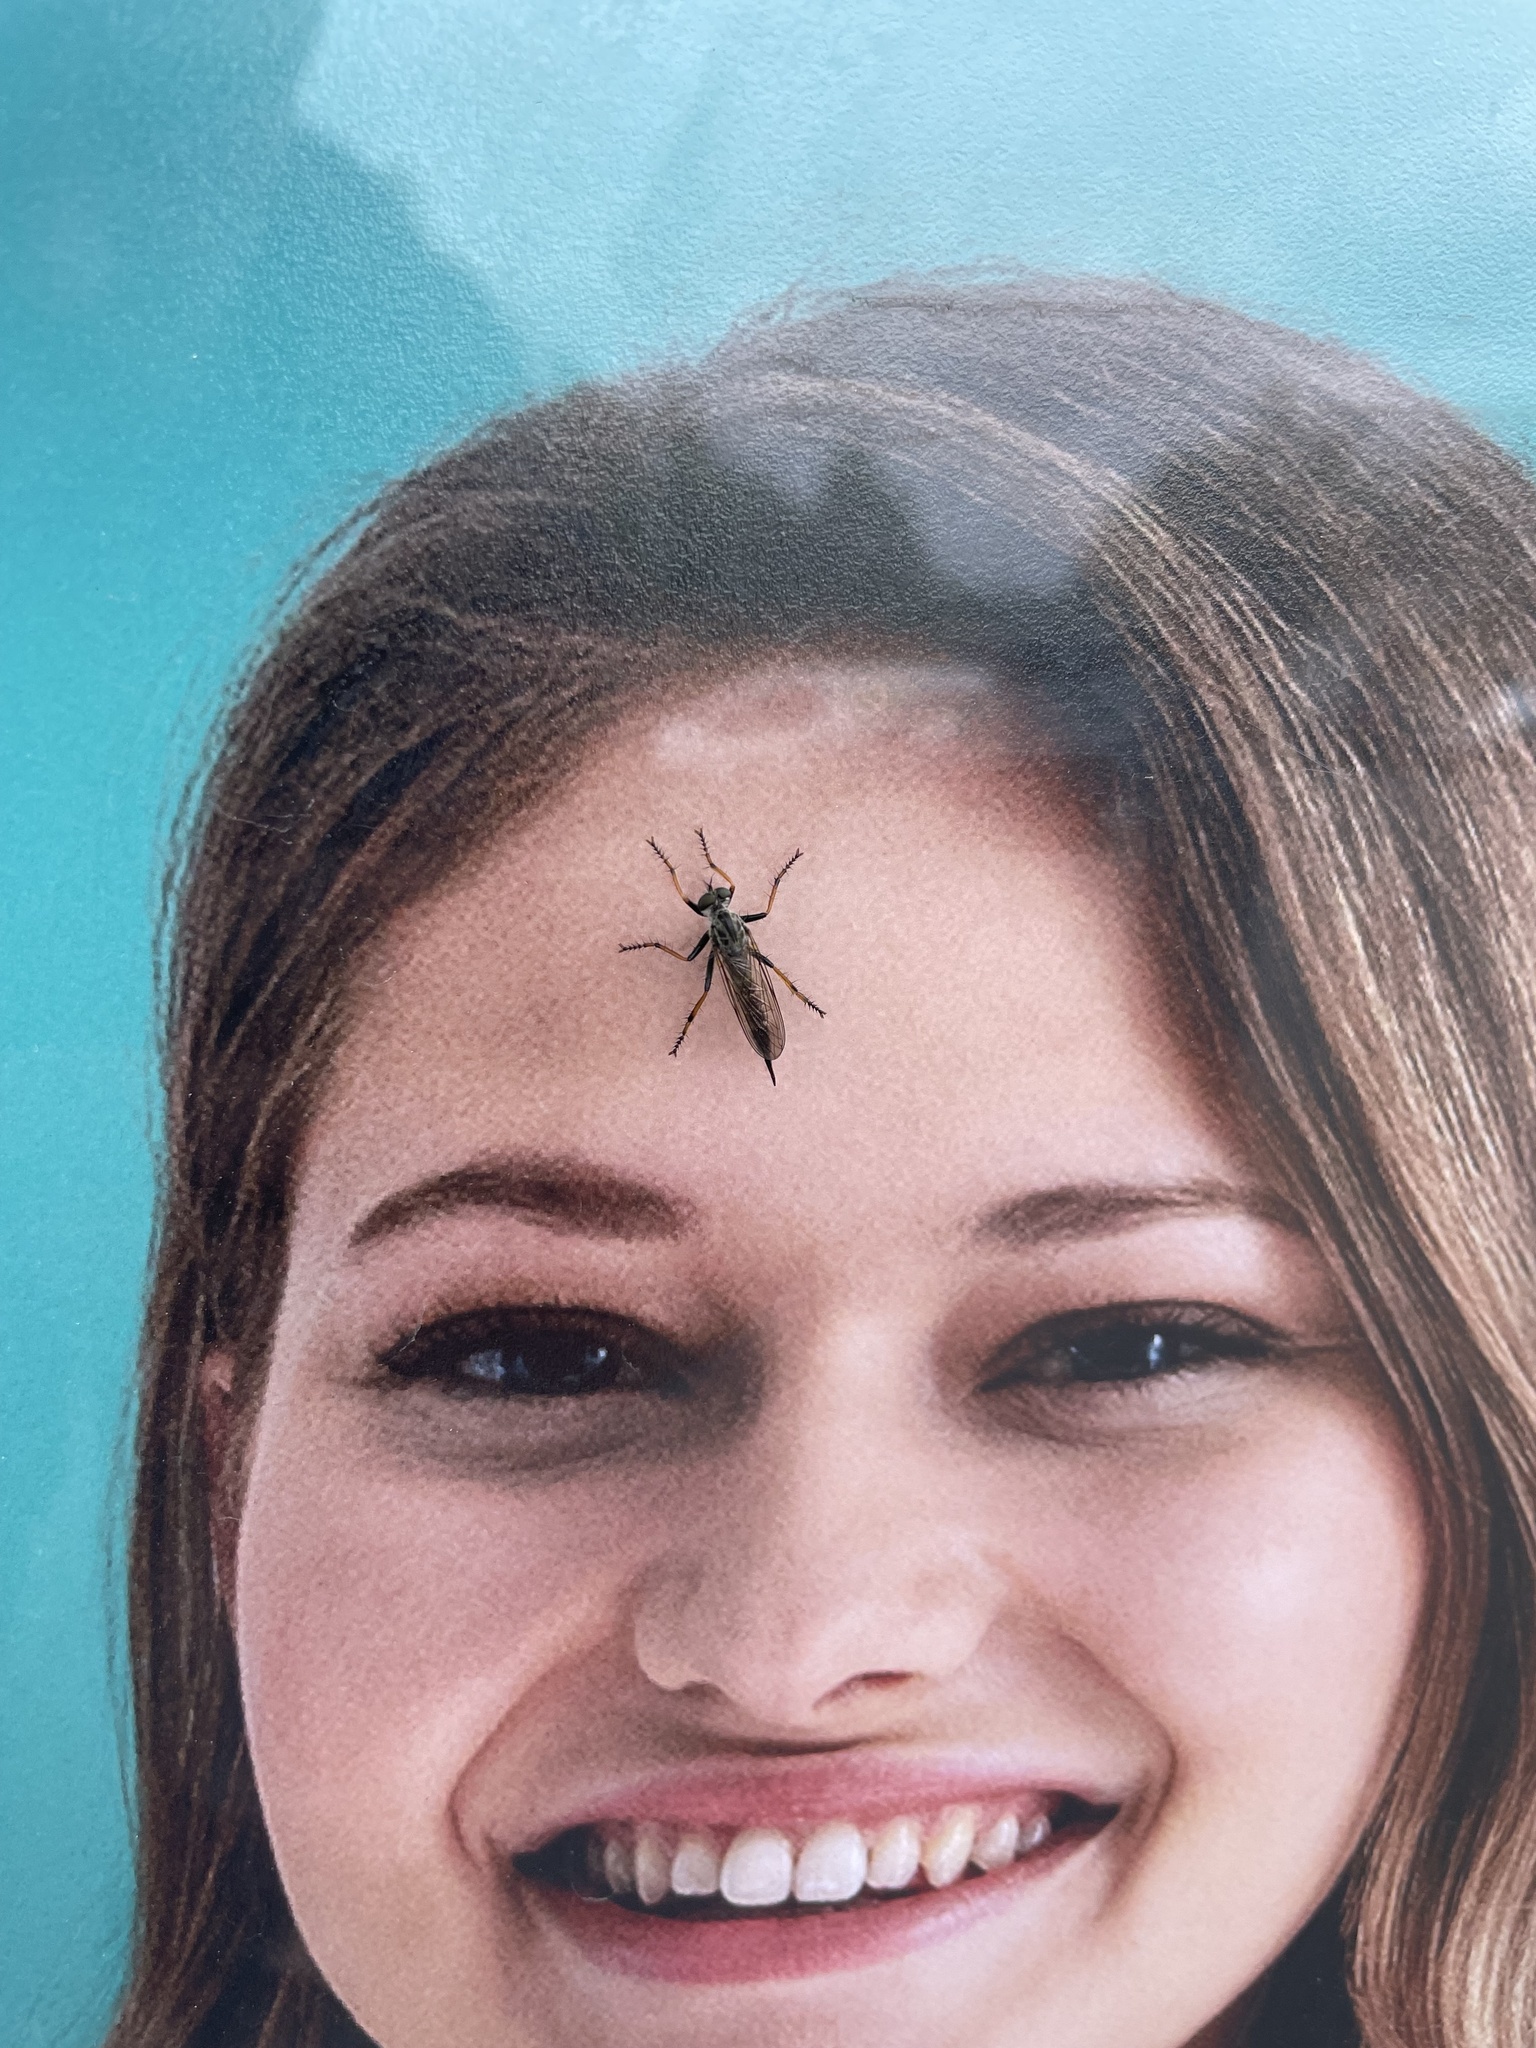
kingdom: Animalia
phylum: Arthropoda
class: Insecta
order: Diptera
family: Asilidae
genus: Paritamus
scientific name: Paritamus geniculatus
